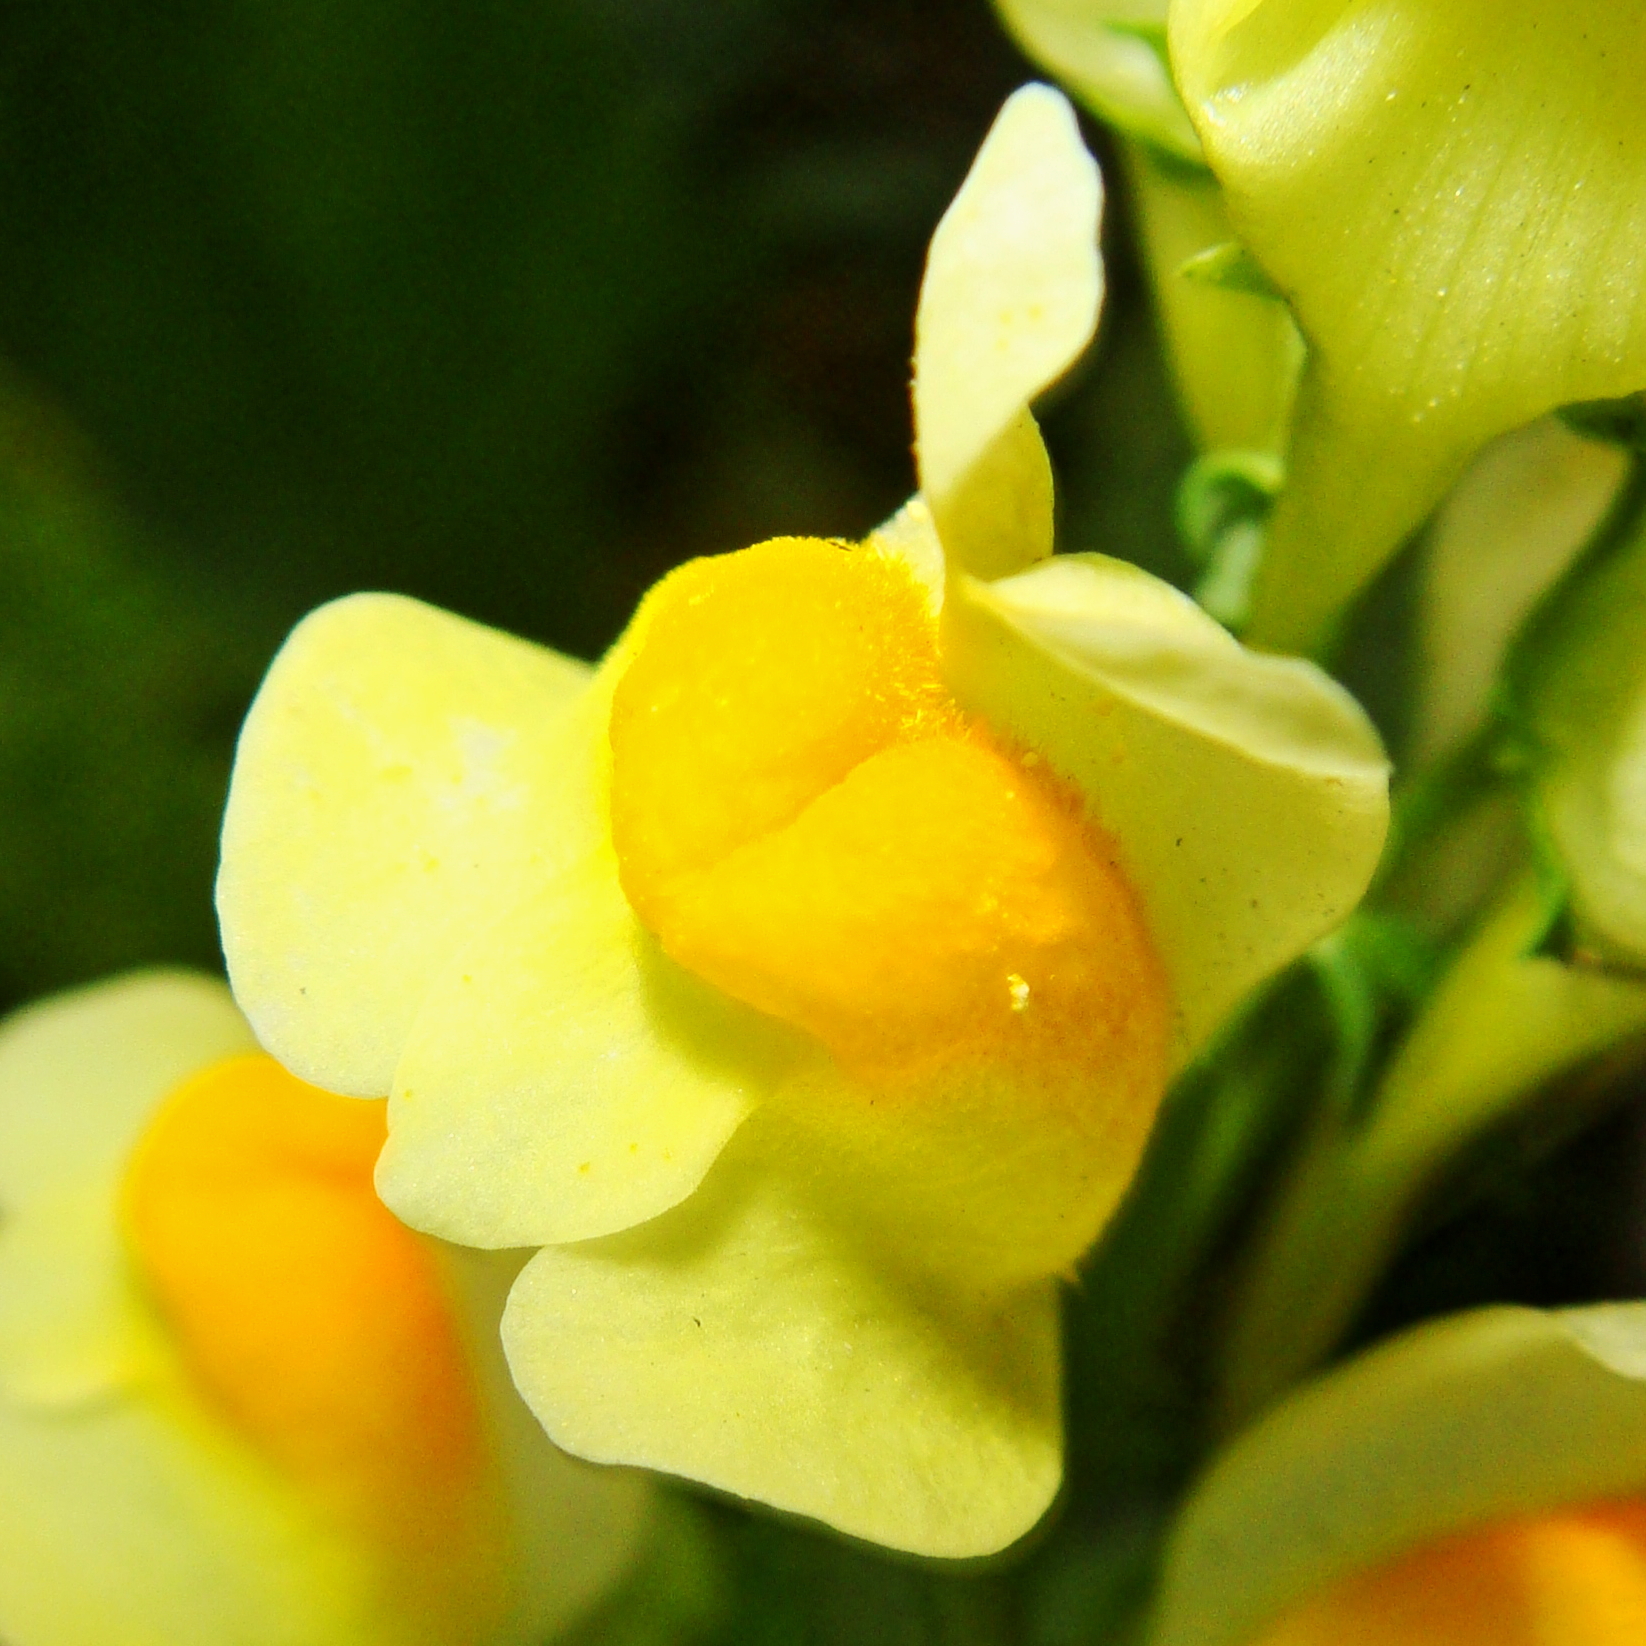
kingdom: Plantae
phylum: Tracheophyta
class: Magnoliopsida
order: Lamiales
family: Plantaginaceae
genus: Linaria
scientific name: Linaria vulgaris
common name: Butter and eggs
